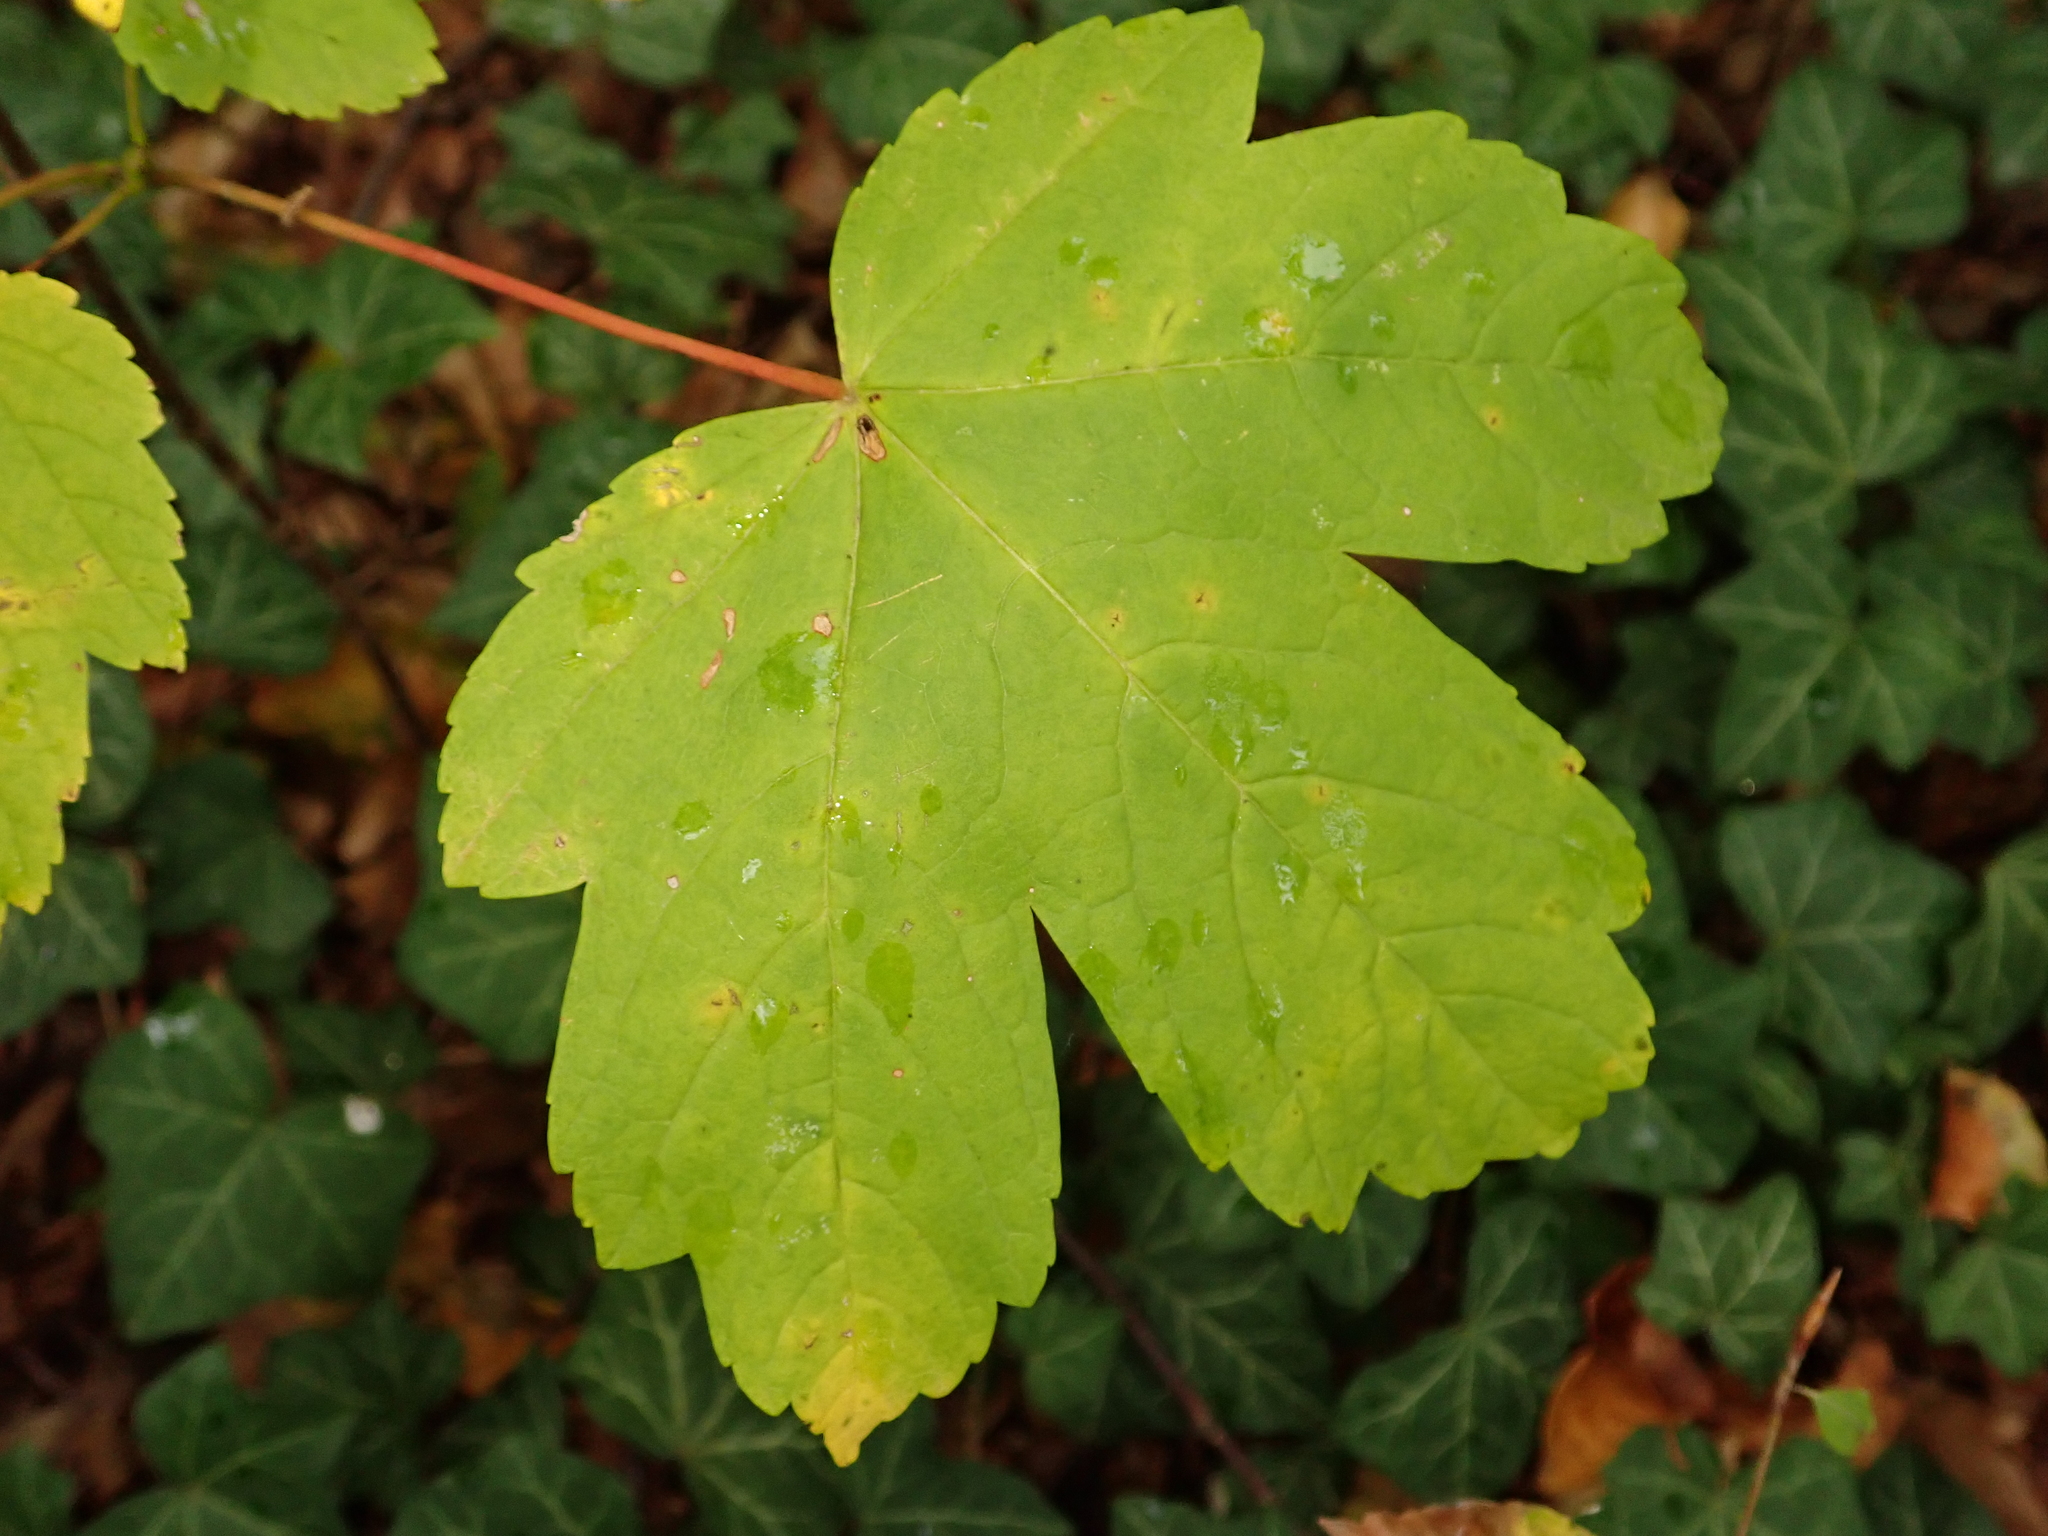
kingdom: Plantae
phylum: Tracheophyta
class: Magnoliopsida
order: Sapindales
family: Sapindaceae
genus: Acer
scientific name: Acer pseudoplatanus
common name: Sycamore
